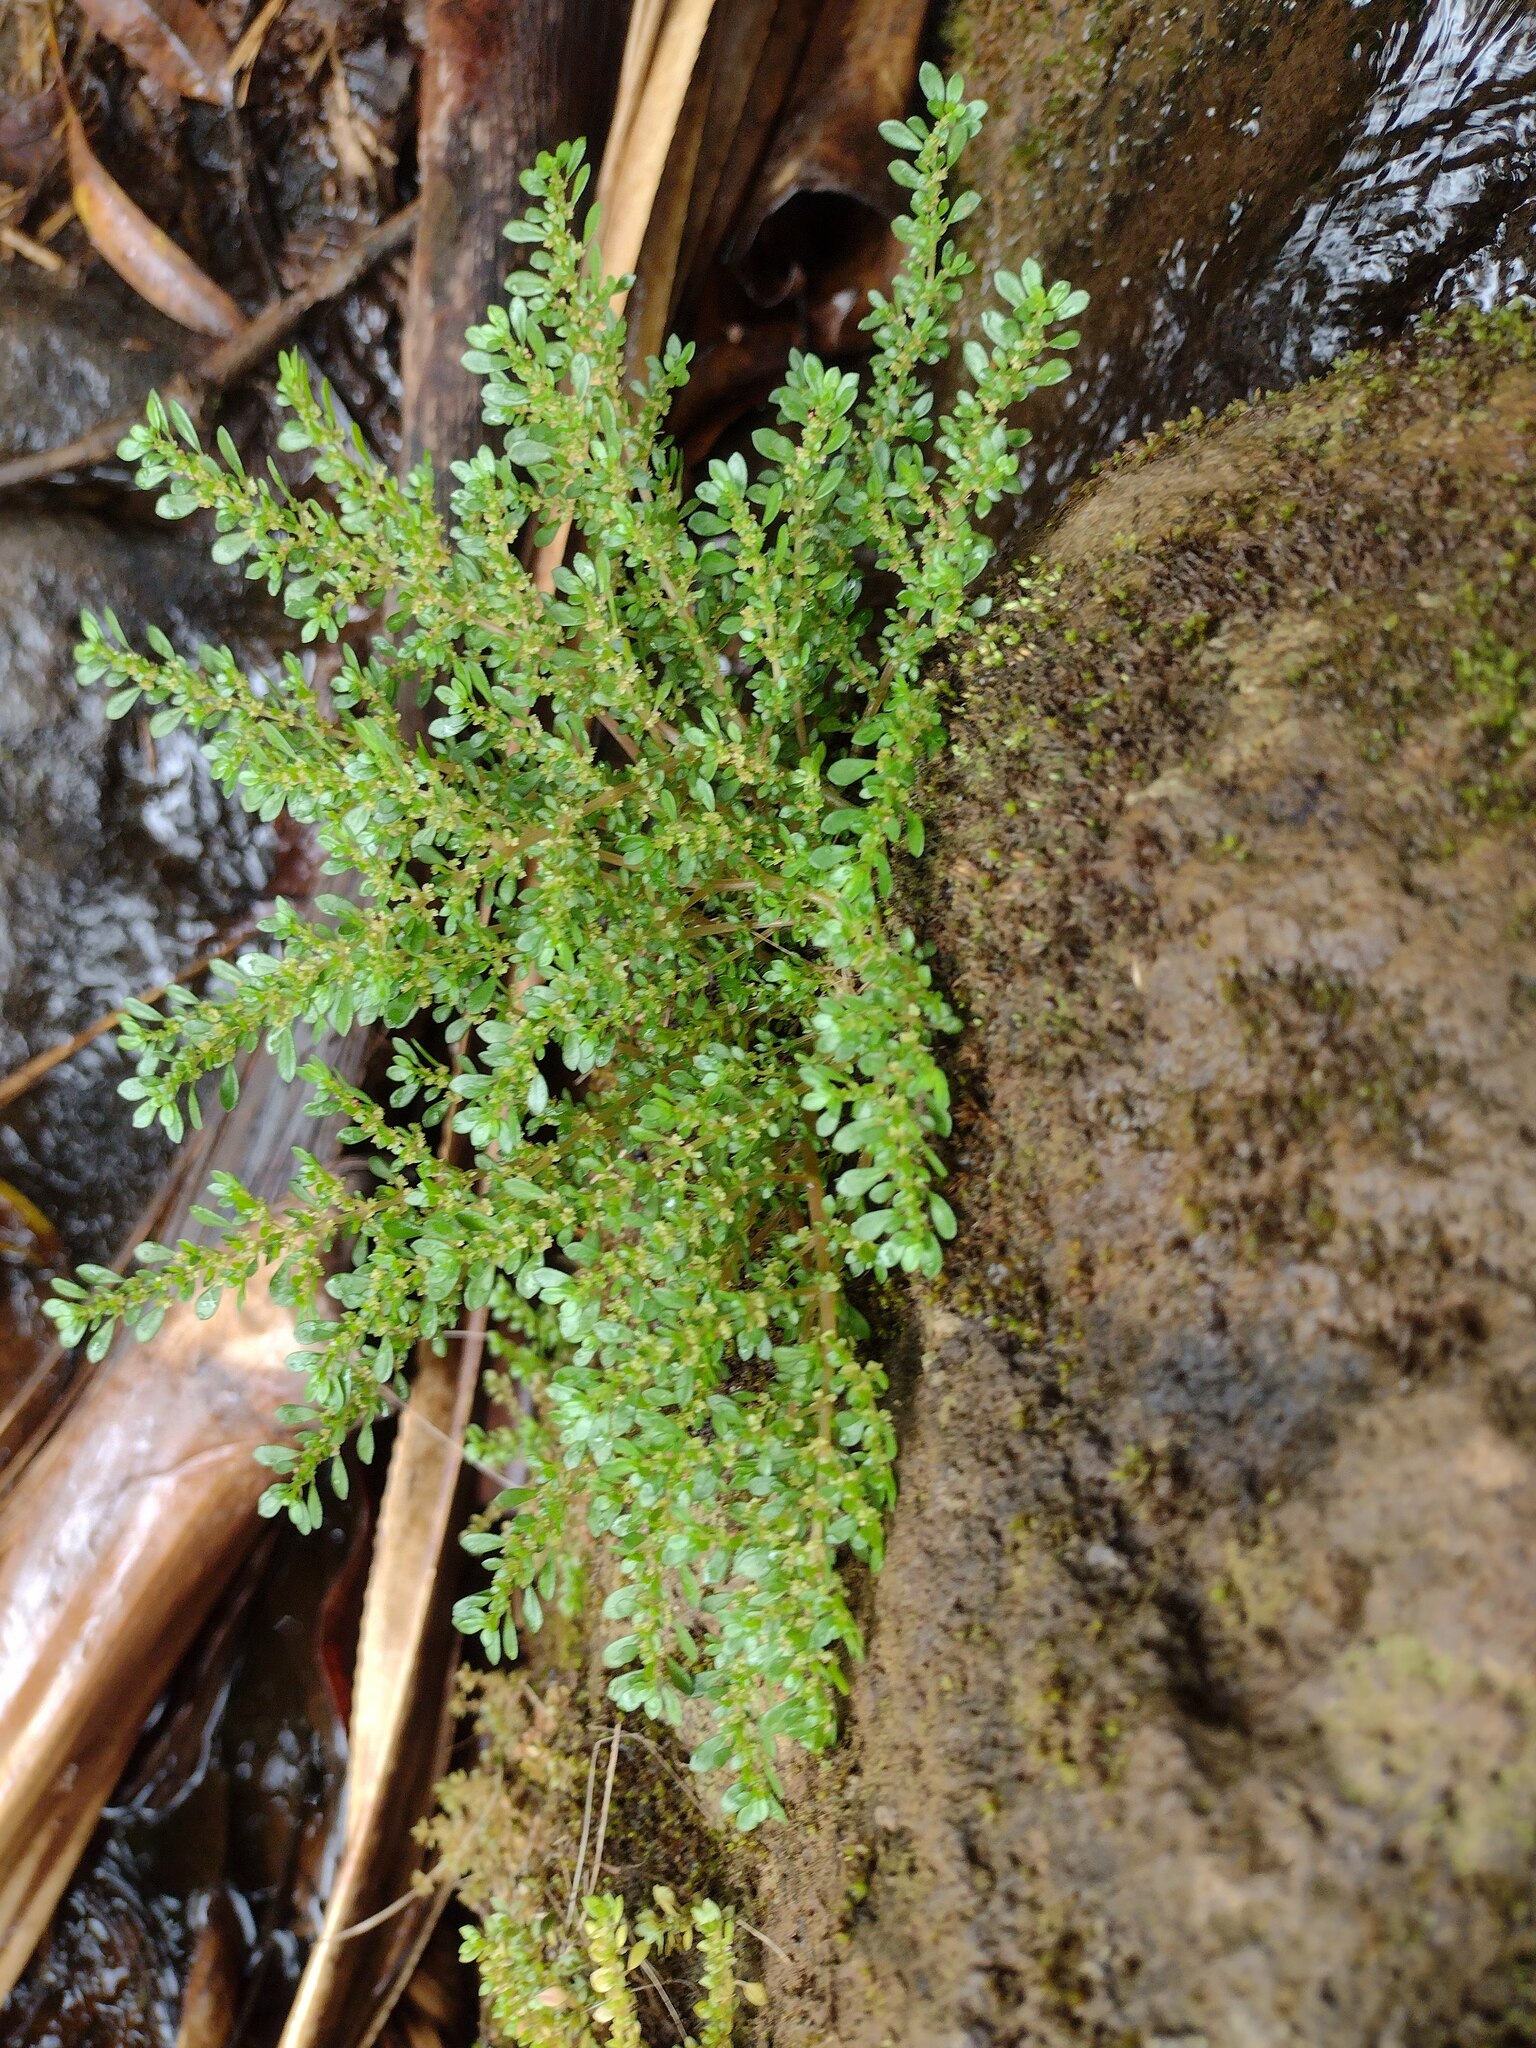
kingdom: Plantae
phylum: Tracheophyta
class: Magnoliopsida
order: Rosales
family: Urticaceae
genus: Pilea
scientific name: Pilea microphylla
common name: Artillery-plant
